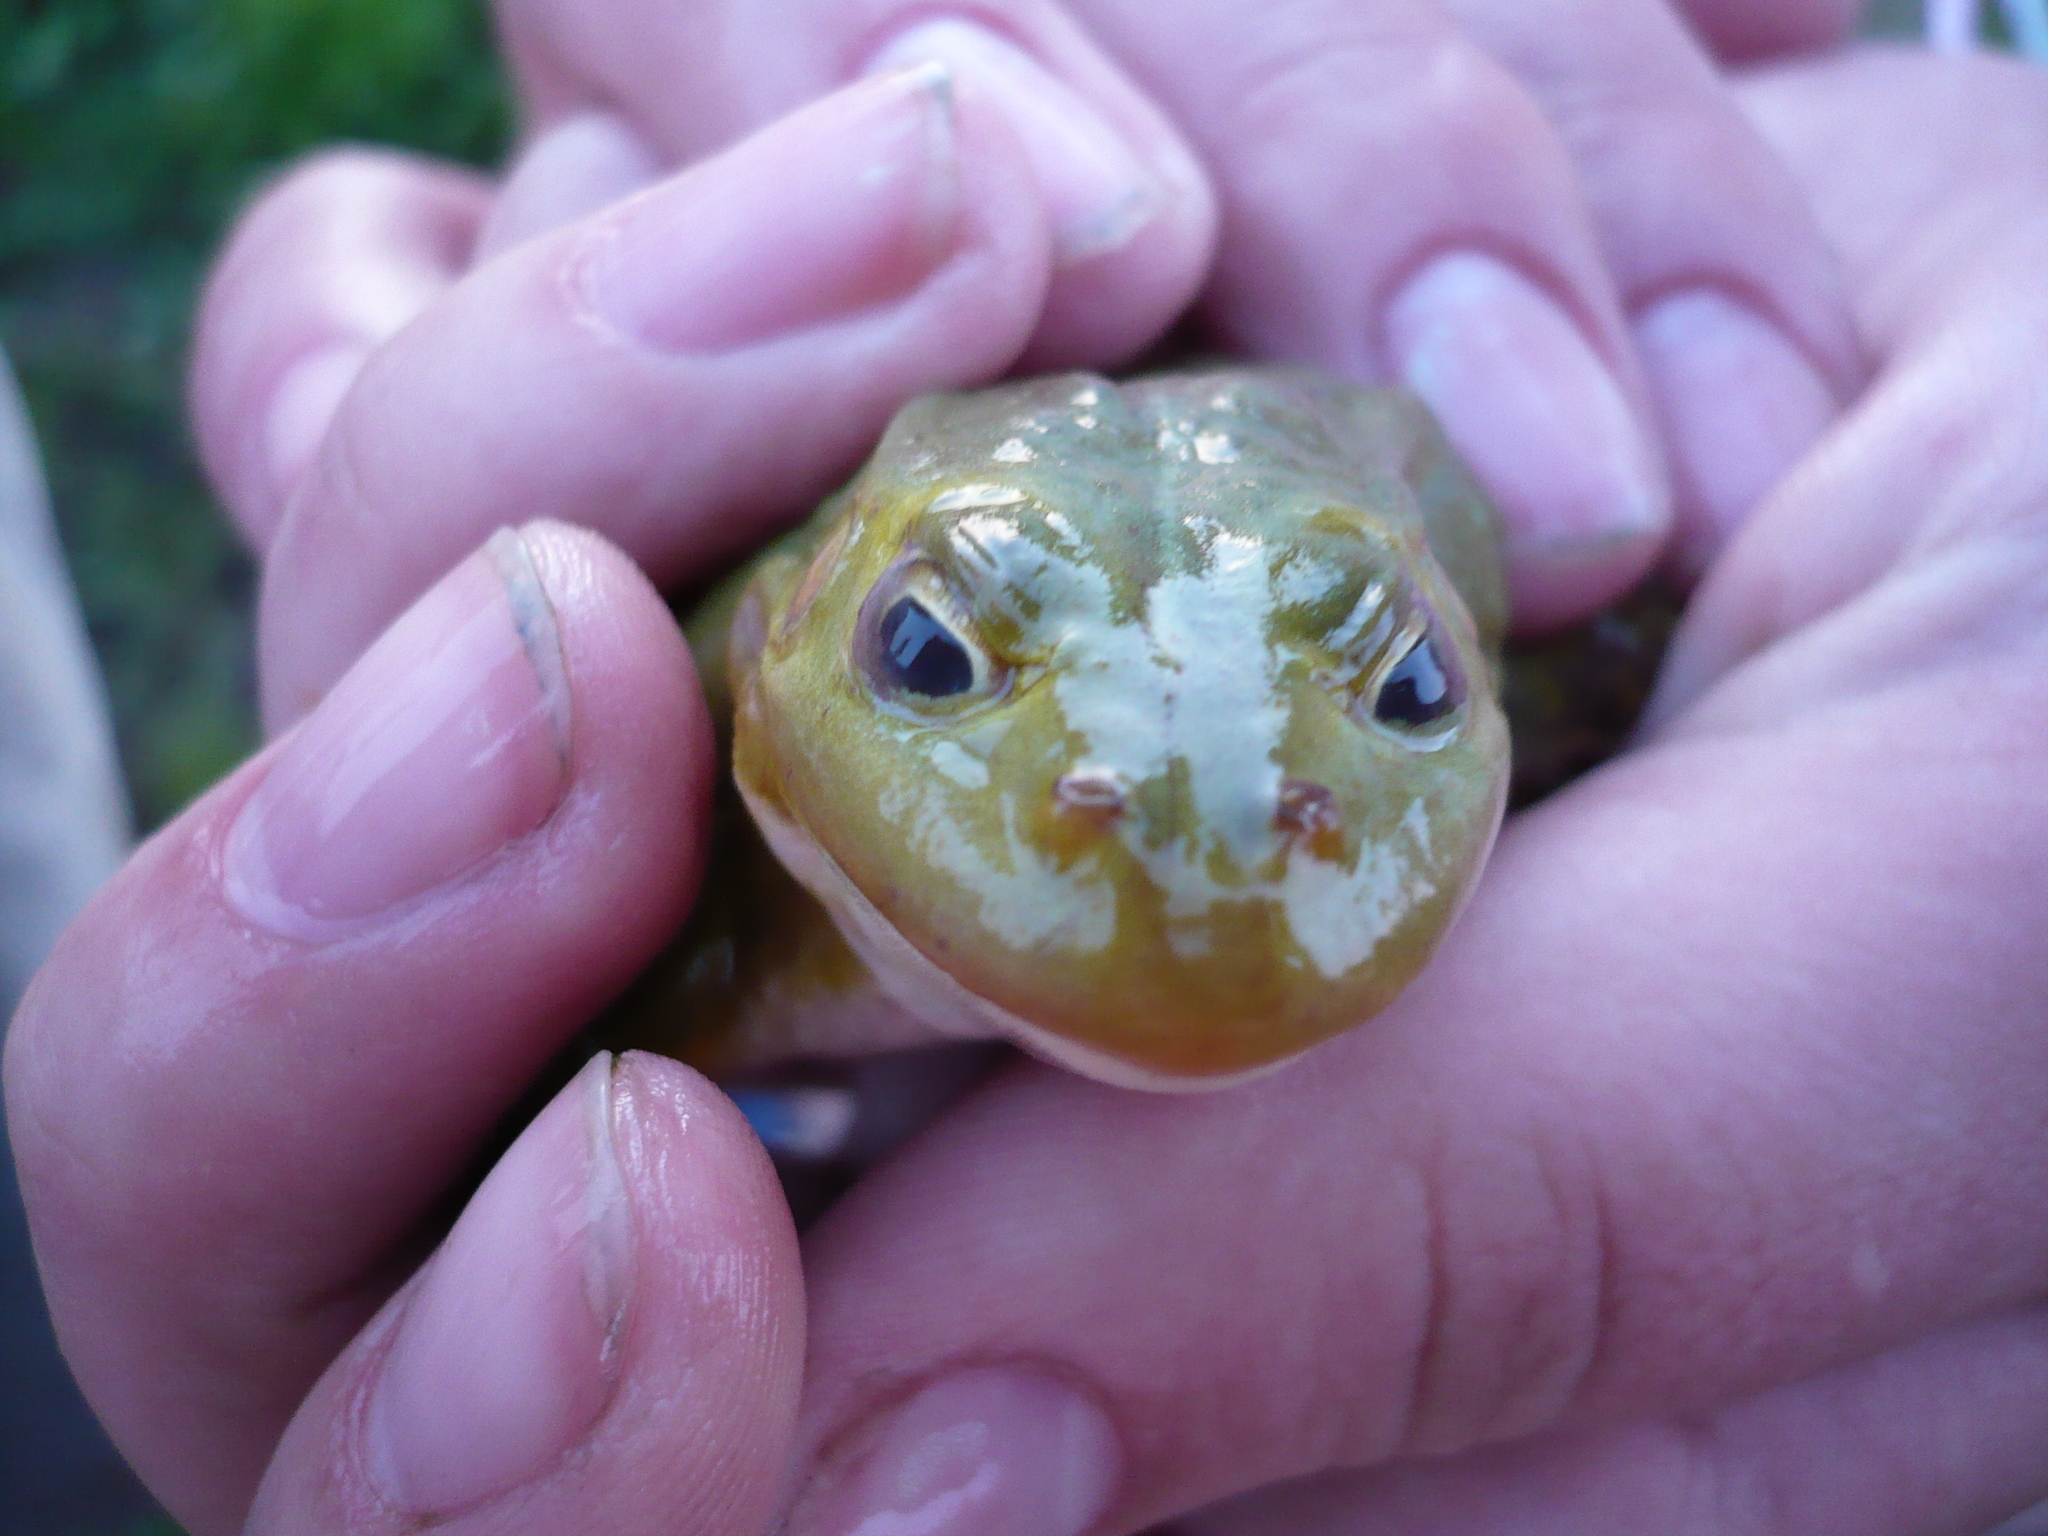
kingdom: Animalia
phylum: Chordata
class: Amphibia
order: Anura
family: Ranidae
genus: Pelophylax
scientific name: Pelophylax lessonae
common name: Pool frog
